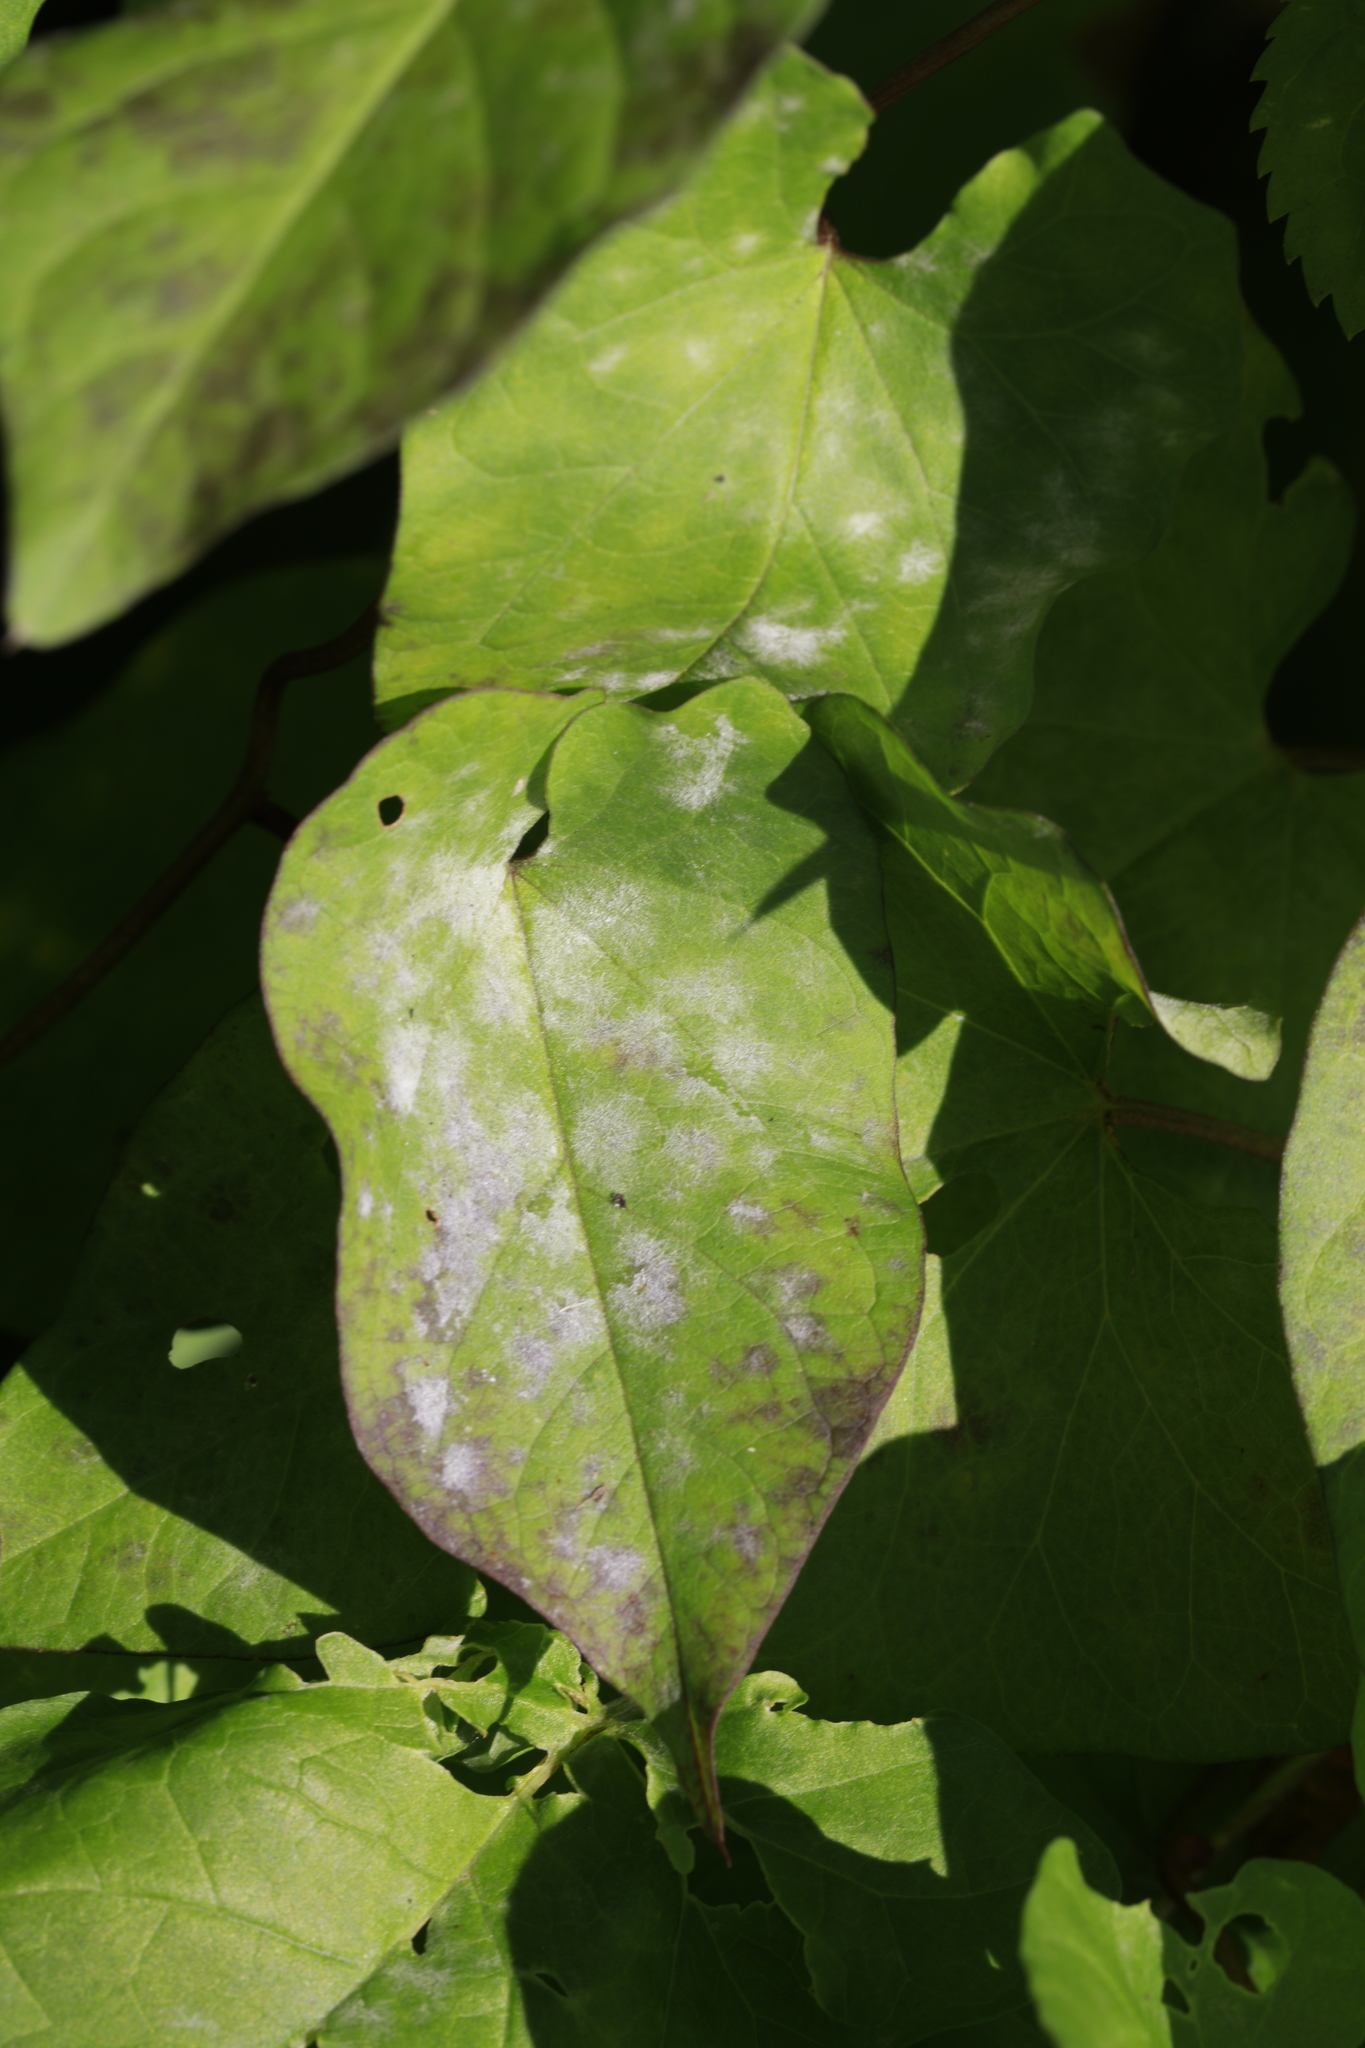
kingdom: Fungi
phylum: Ascomycota
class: Leotiomycetes
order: Helotiales
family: Erysiphaceae
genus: Erysiphe
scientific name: Erysiphe convolvuli
